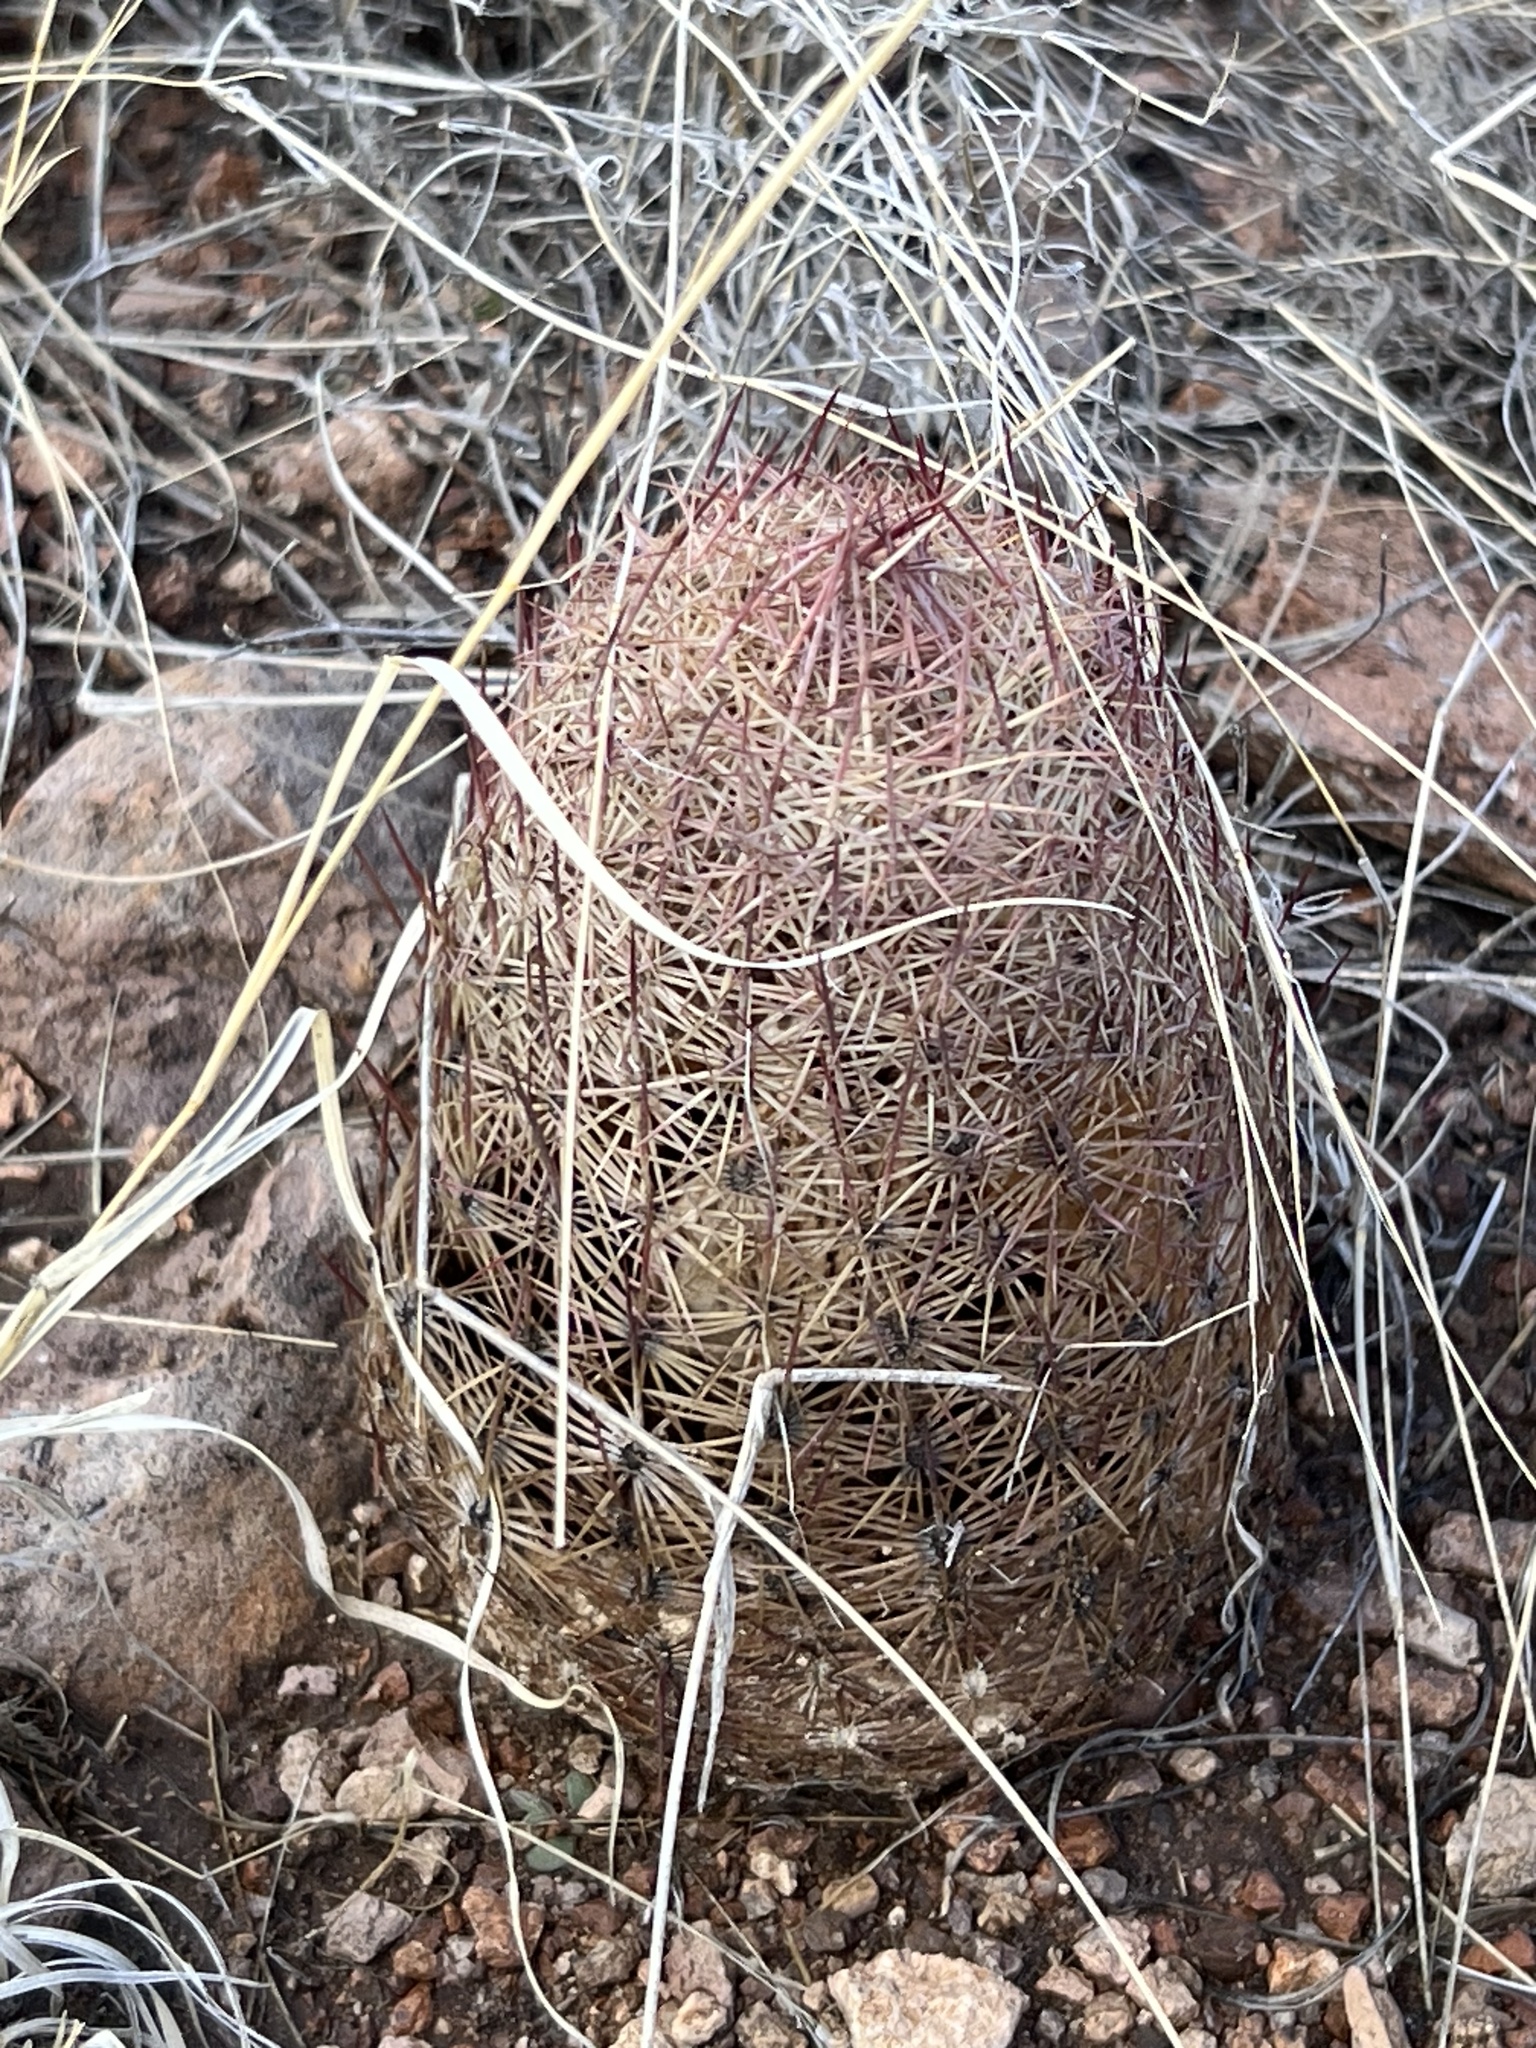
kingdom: Plantae
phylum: Tracheophyta
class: Magnoliopsida
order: Caryophyllales
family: Cactaceae
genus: Sclerocactus
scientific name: Sclerocactus johnsonii
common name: Eight-spine fishhook cactus
